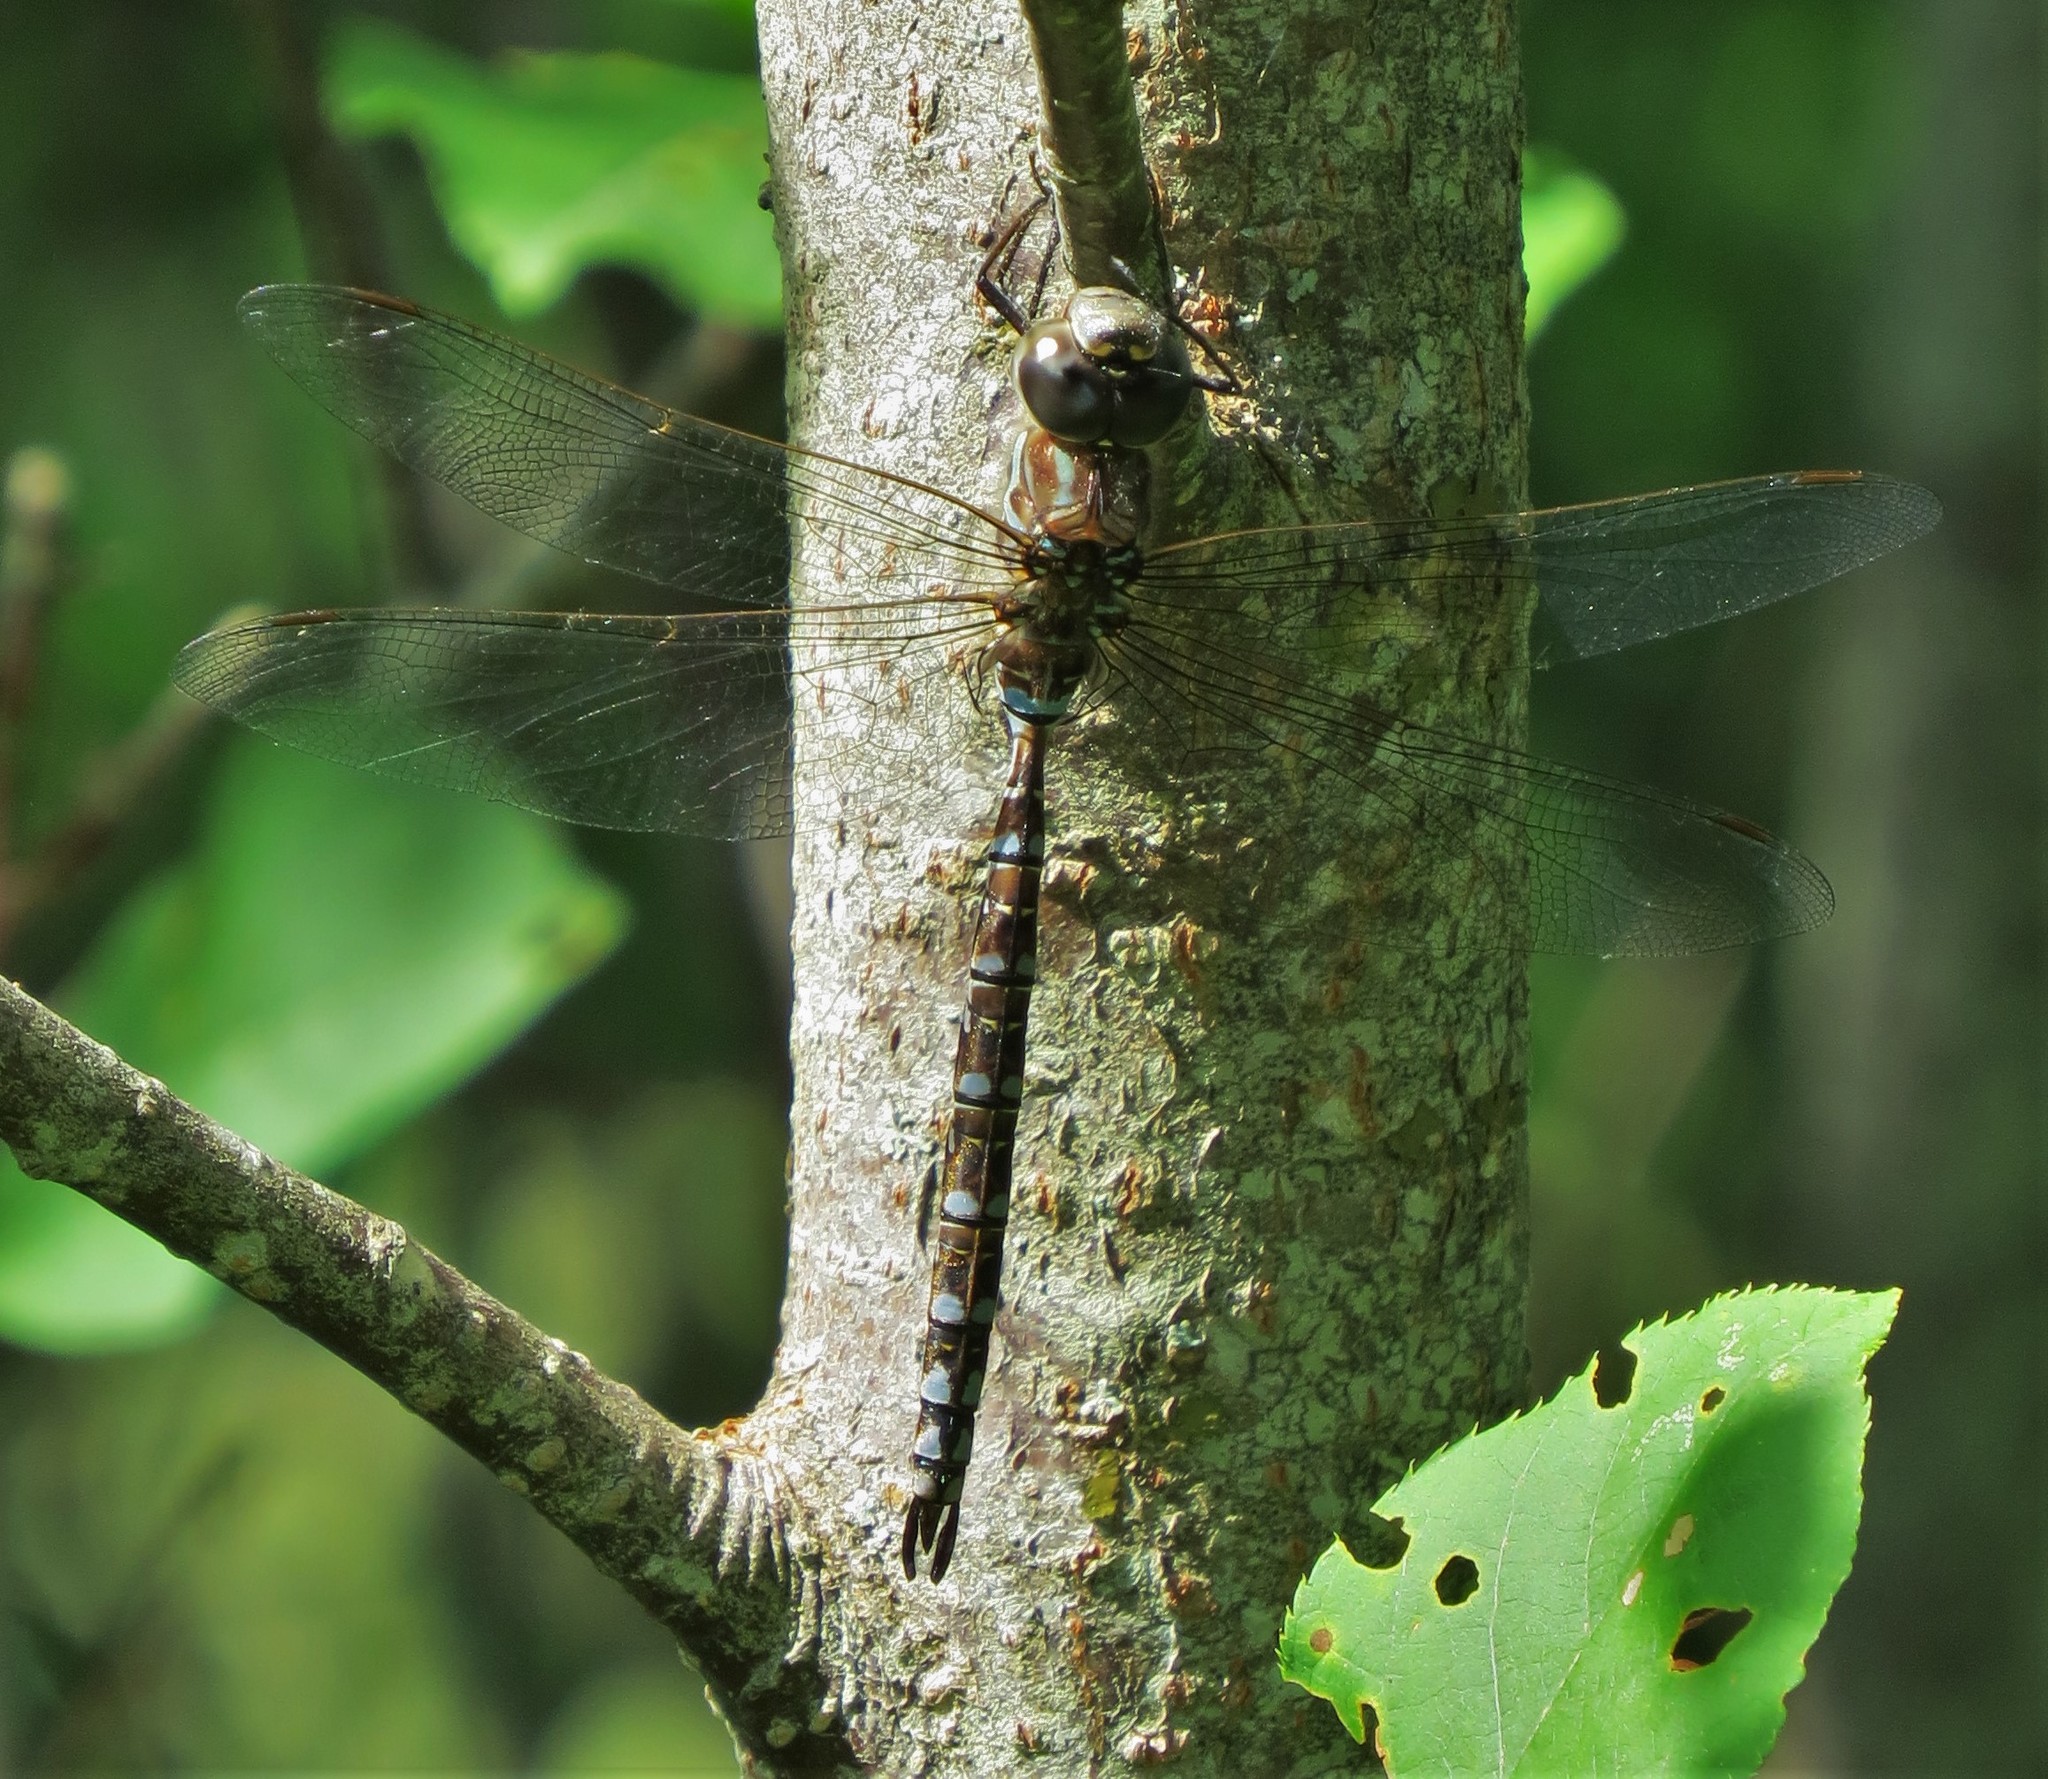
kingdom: Animalia
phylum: Arthropoda
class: Insecta
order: Odonata
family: Aeshnidae
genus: Aeshna
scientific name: Aeshna canadensis
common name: Canada darner
